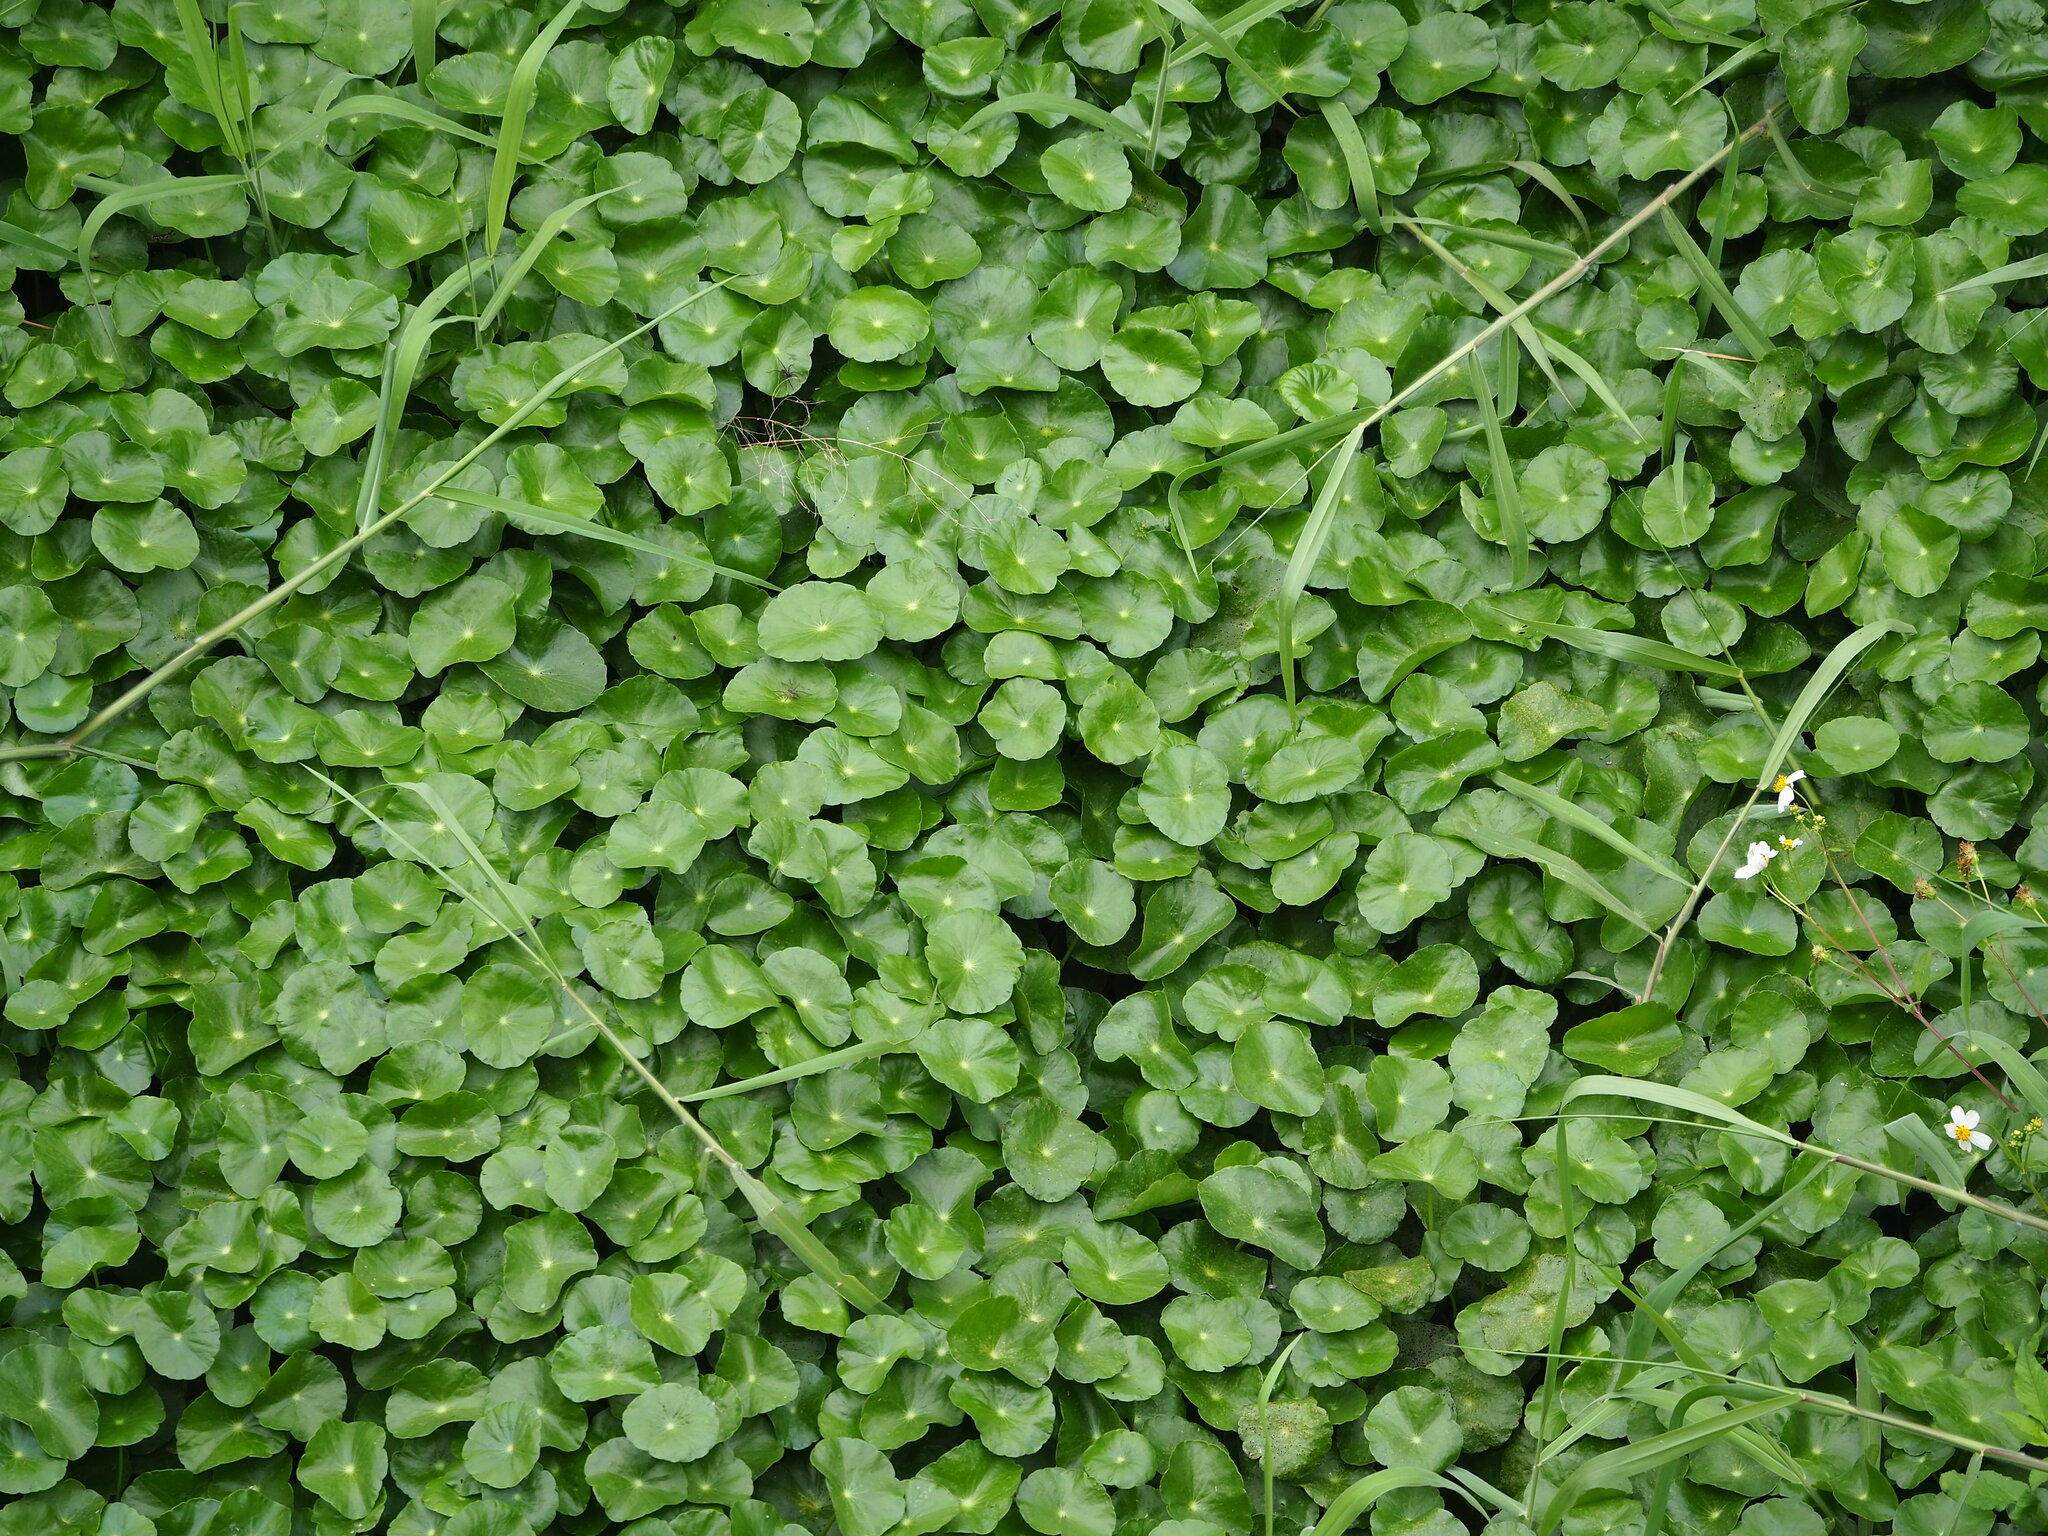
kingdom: Plantae
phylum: Tracheophyta
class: Magnoliopsida
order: Apiales
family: Araliaceae
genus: Hydrocotyle
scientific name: Hydrocotyle verticillata
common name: Whorled marshpennywort
